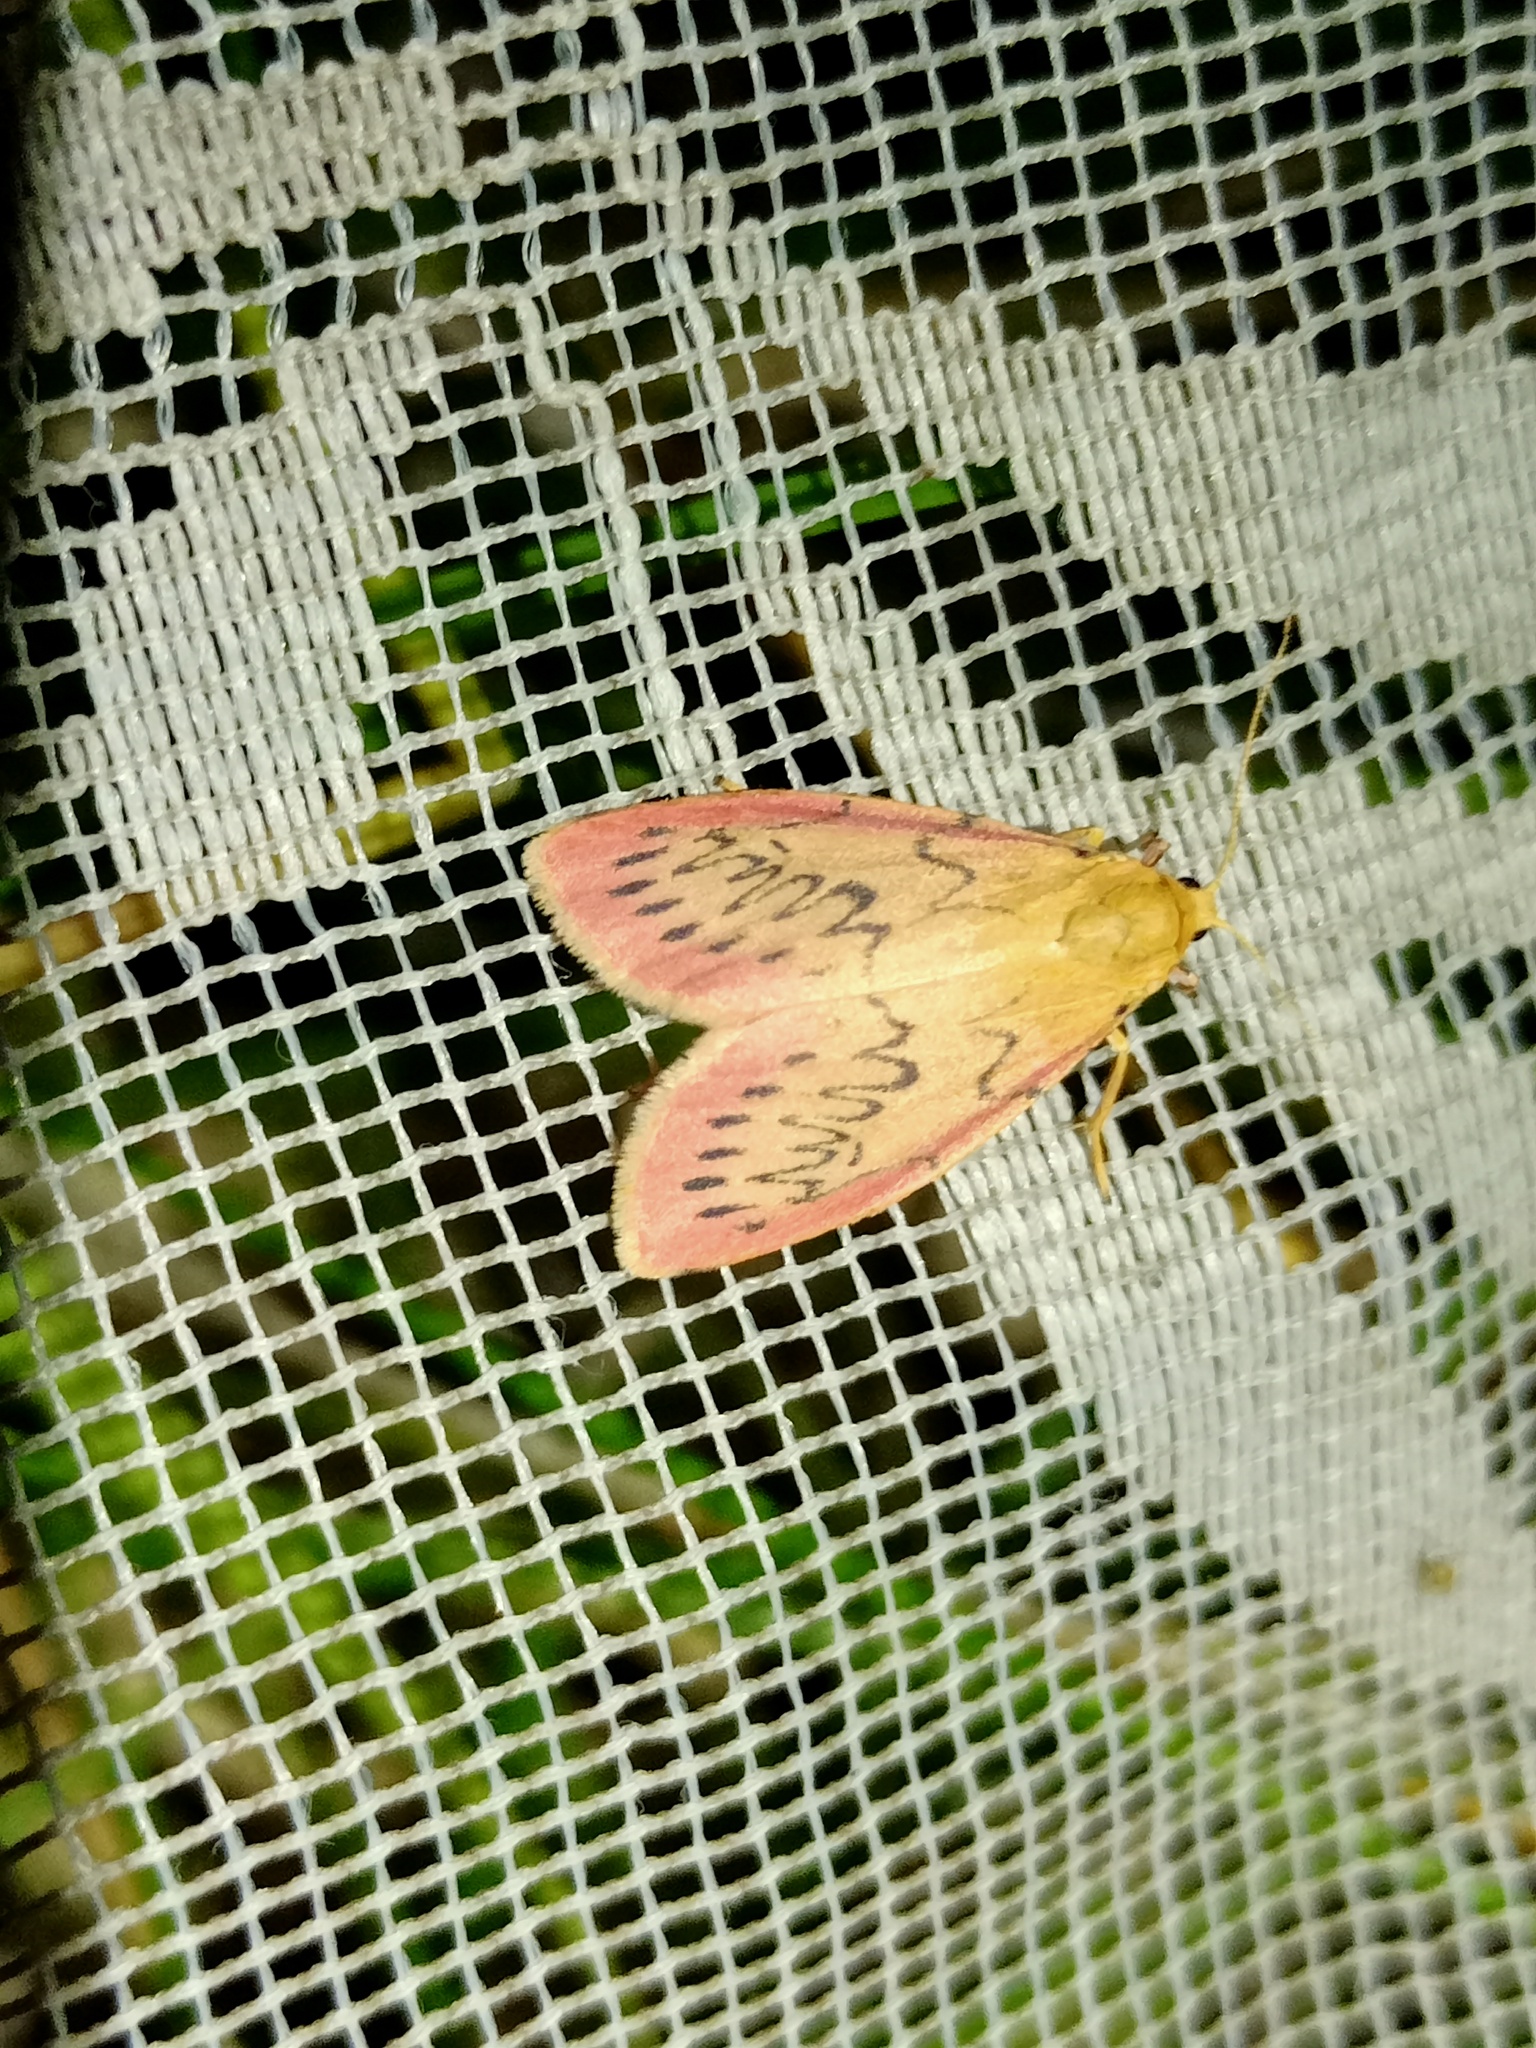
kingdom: Animalia
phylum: Arthropoda
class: Insecta
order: Lepidoptera
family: Erebidae
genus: Miltochrista
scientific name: Miltochrista miniata
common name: Rosy footman
